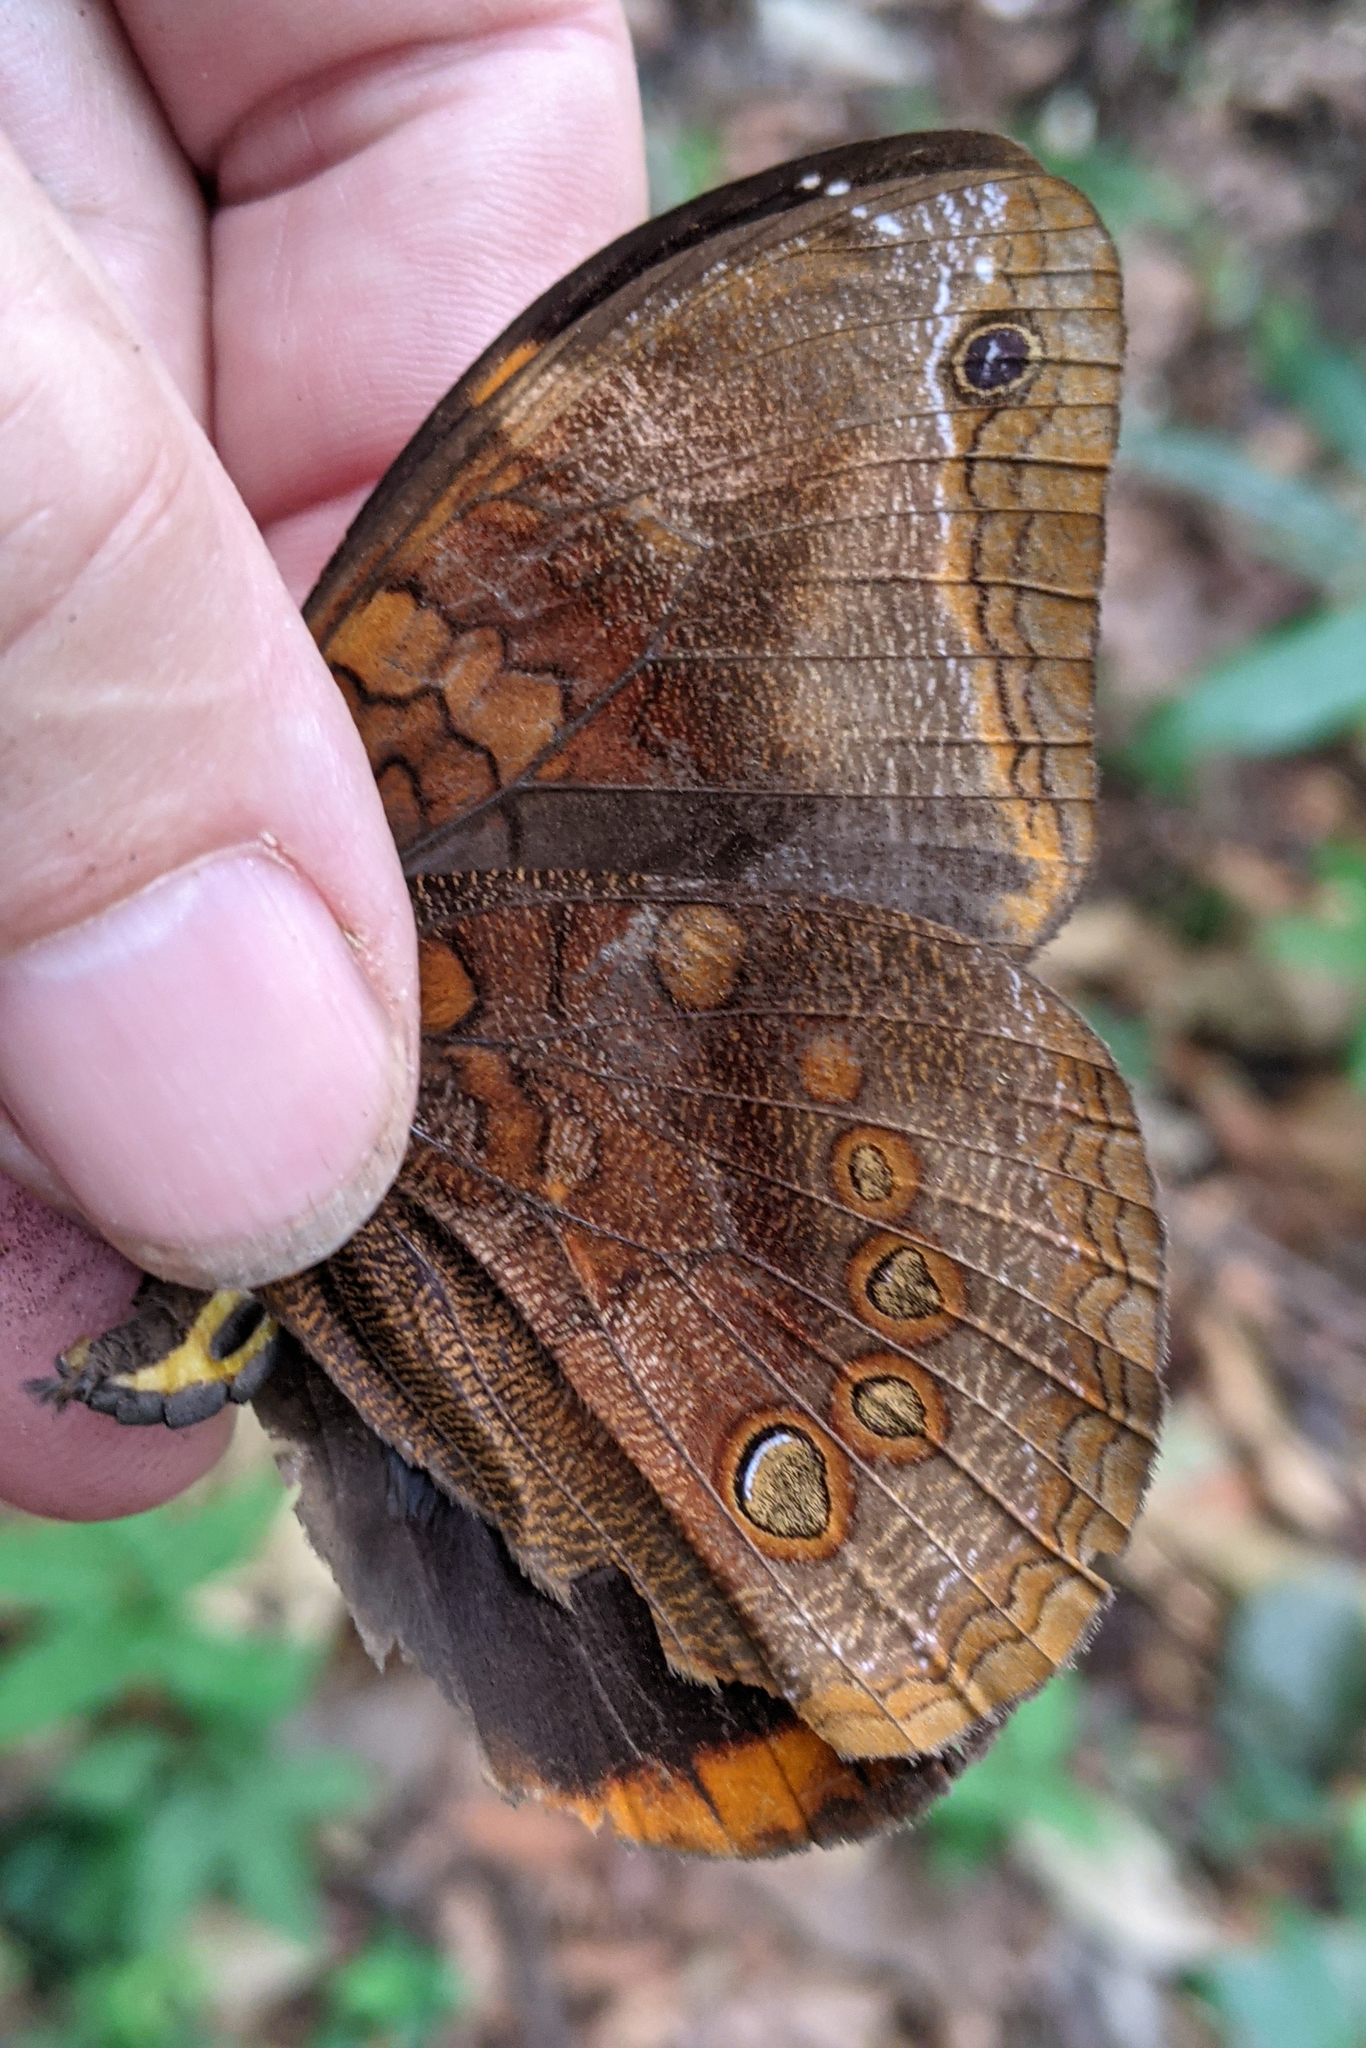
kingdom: Animalia
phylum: Arthropoda
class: Insecta
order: Lepidoptera
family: Nymphalidae
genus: Catoblepia
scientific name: Catoblepia berecynthia
